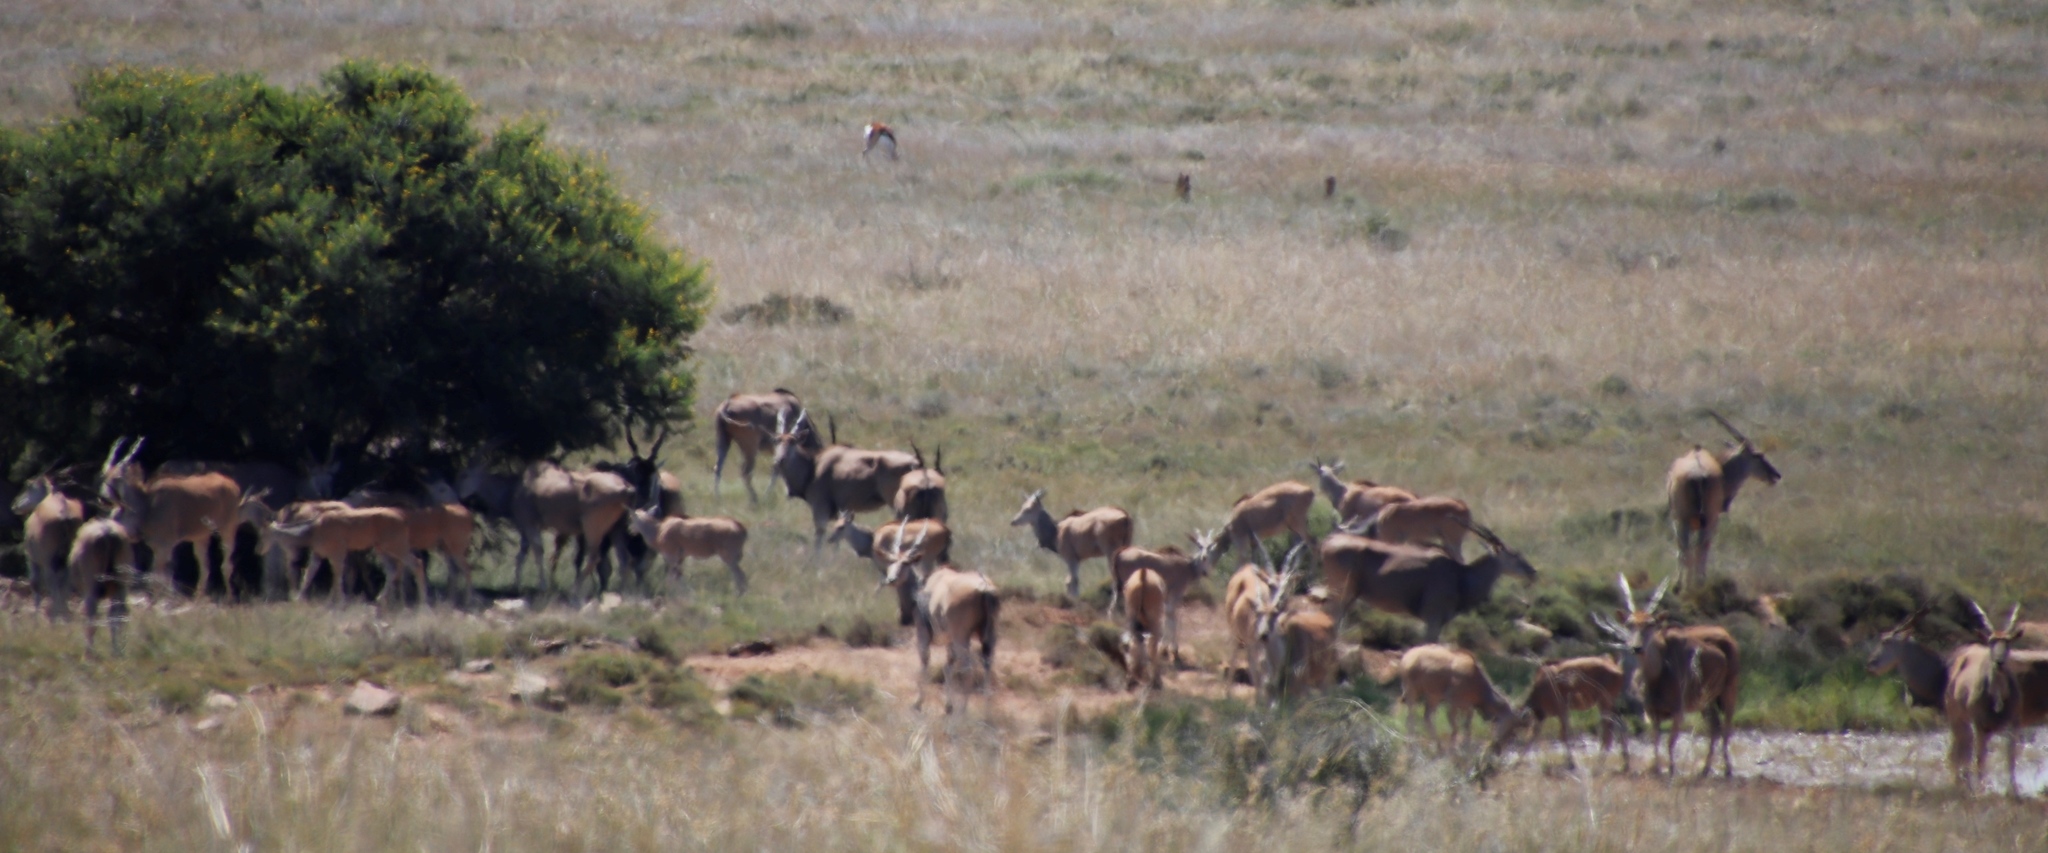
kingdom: Animalia
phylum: Chordata
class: Mammalia
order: Artiodactyla
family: Bovidae
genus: Taurotragus
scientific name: Taurotragus oryx
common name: Common eland
